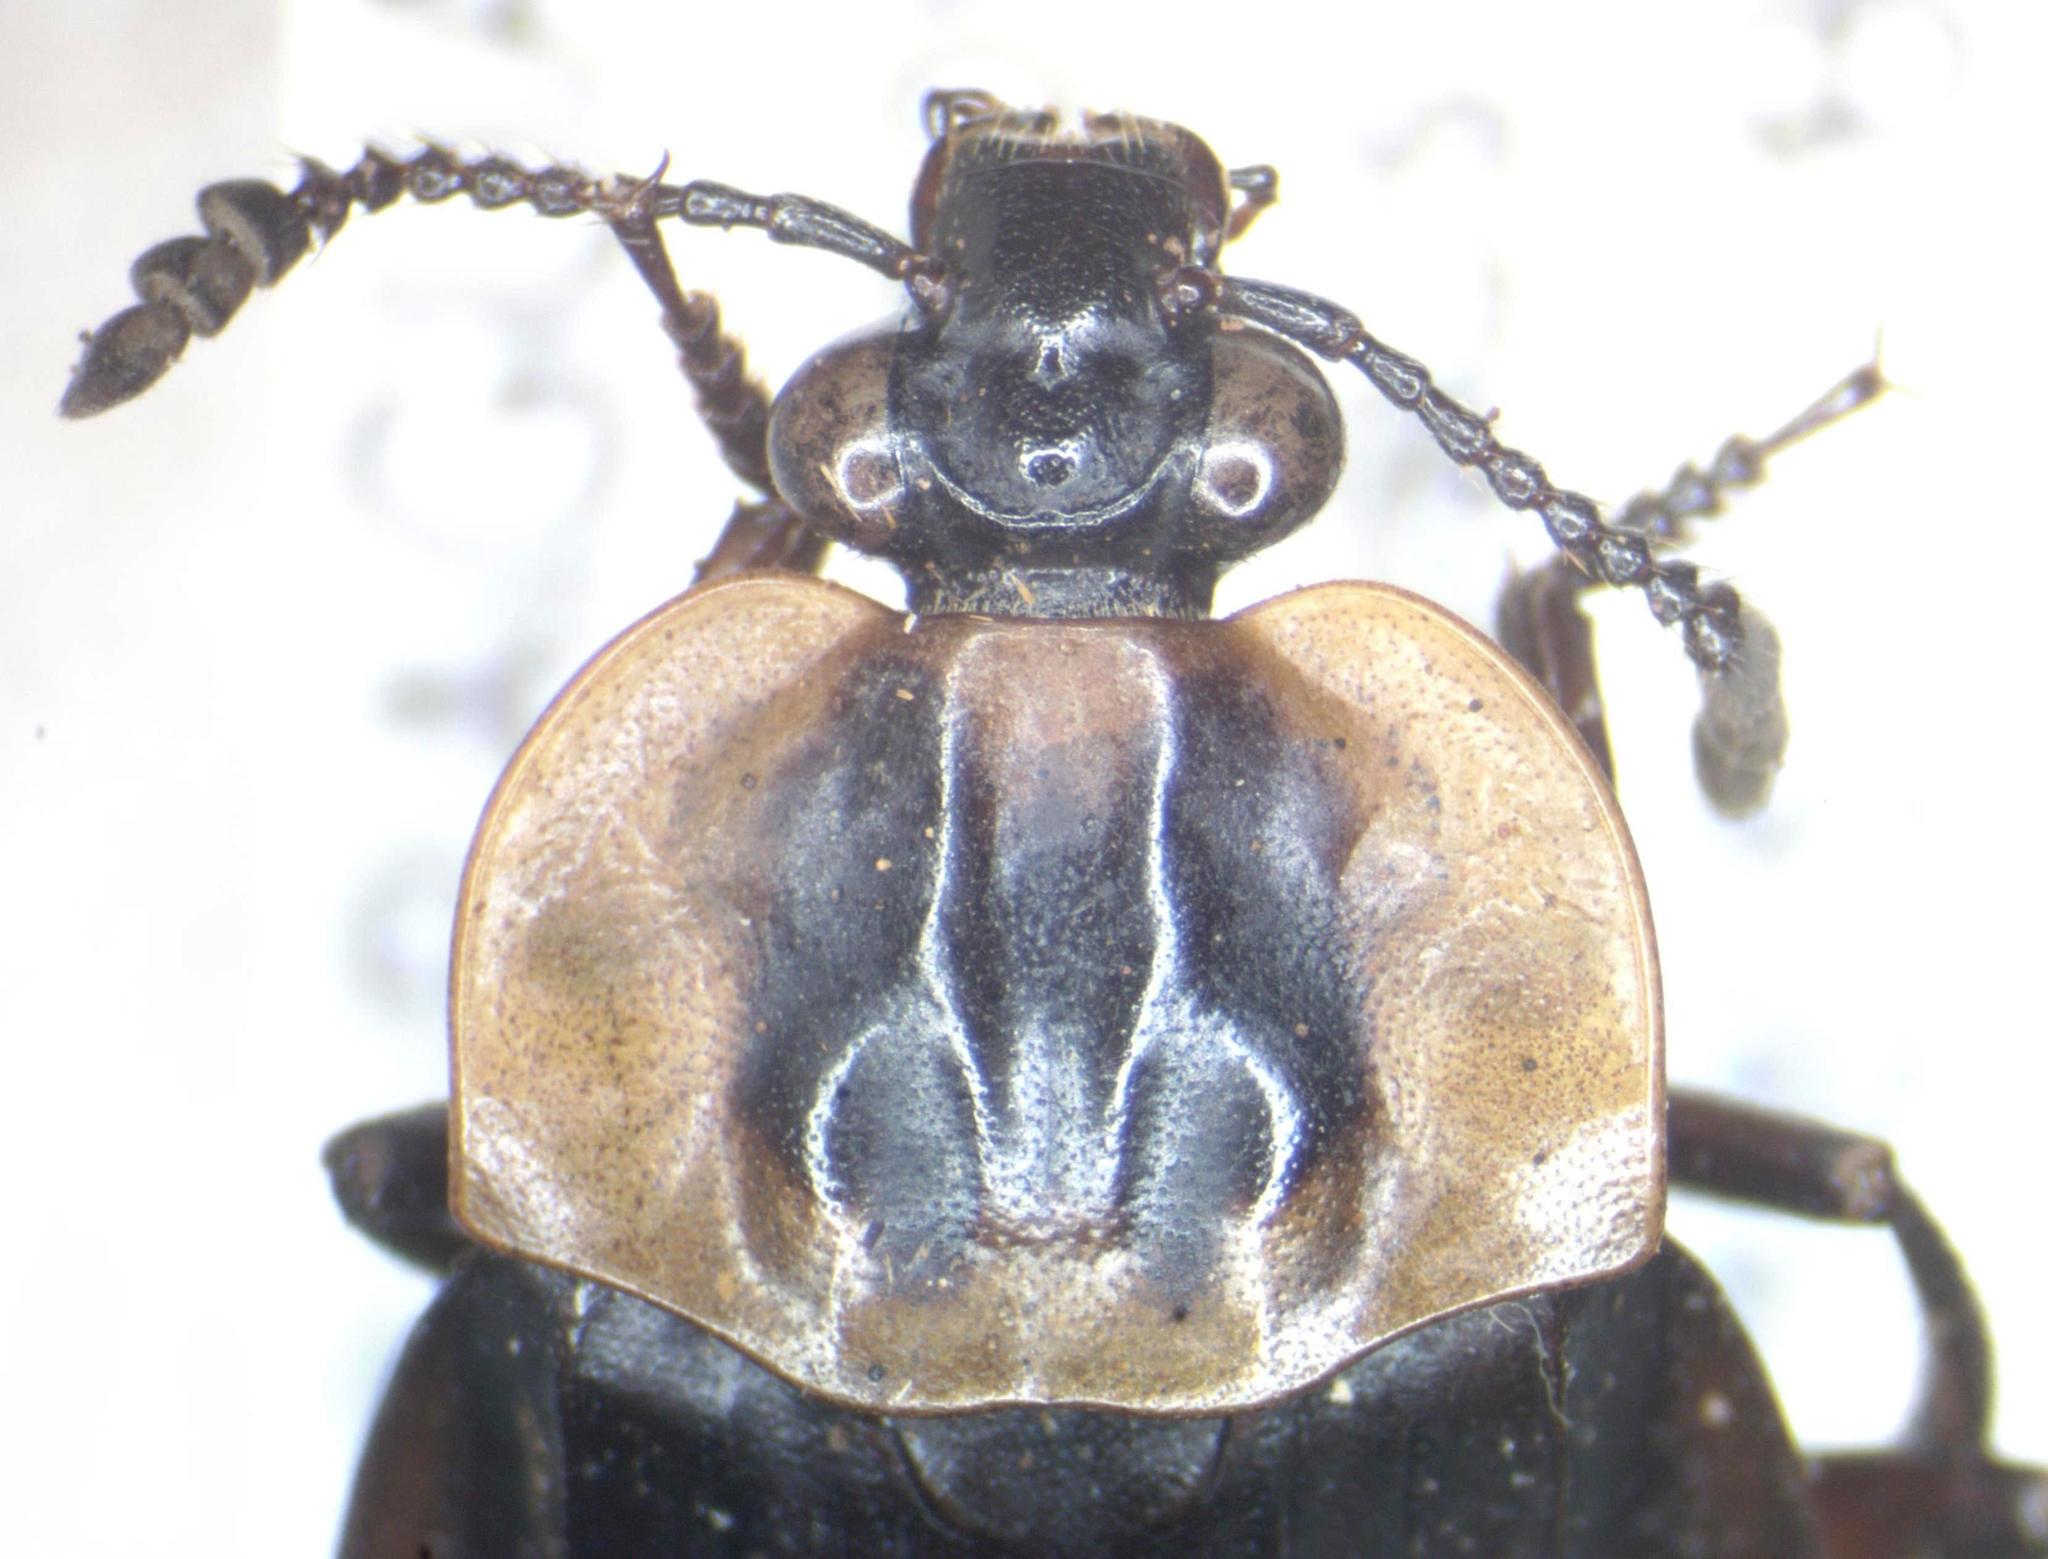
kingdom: Animalia
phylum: Arthropoda
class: Insecta
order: Coleoptera
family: Staphylinidae
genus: Oxelytrum
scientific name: Oxelytrum discicolle
